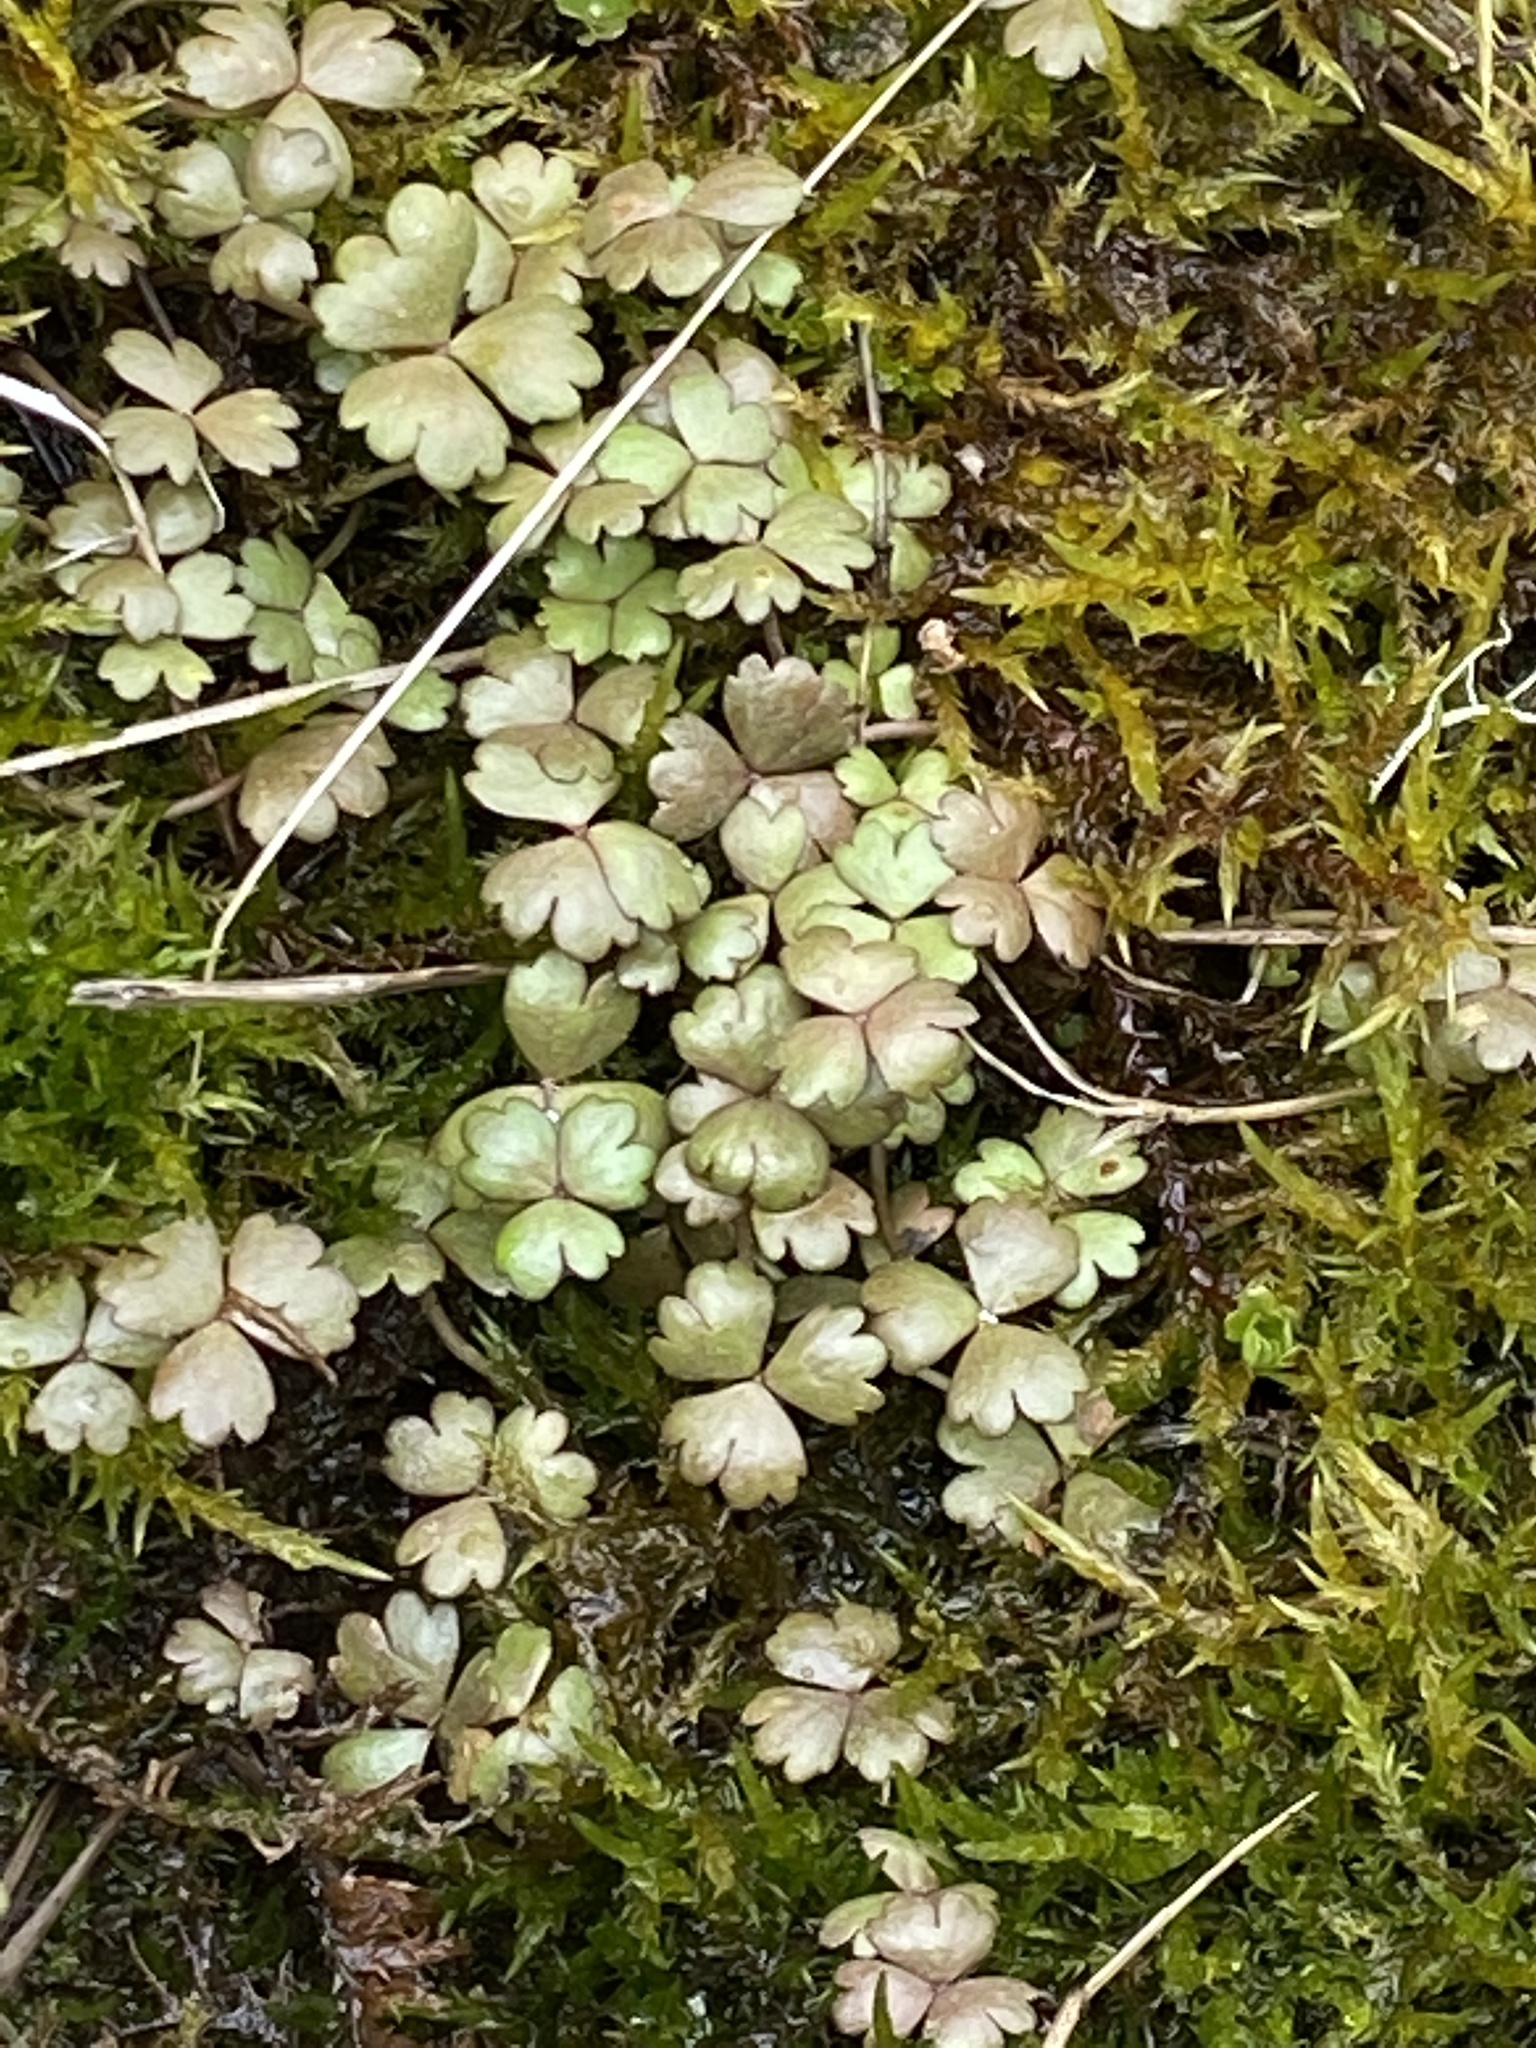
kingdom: Plantae
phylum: Tracheophyta
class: Magnoliopsida
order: Apiales
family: Araliaceae
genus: Hydrocotyle
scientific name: Hydrocotyle sulcata
